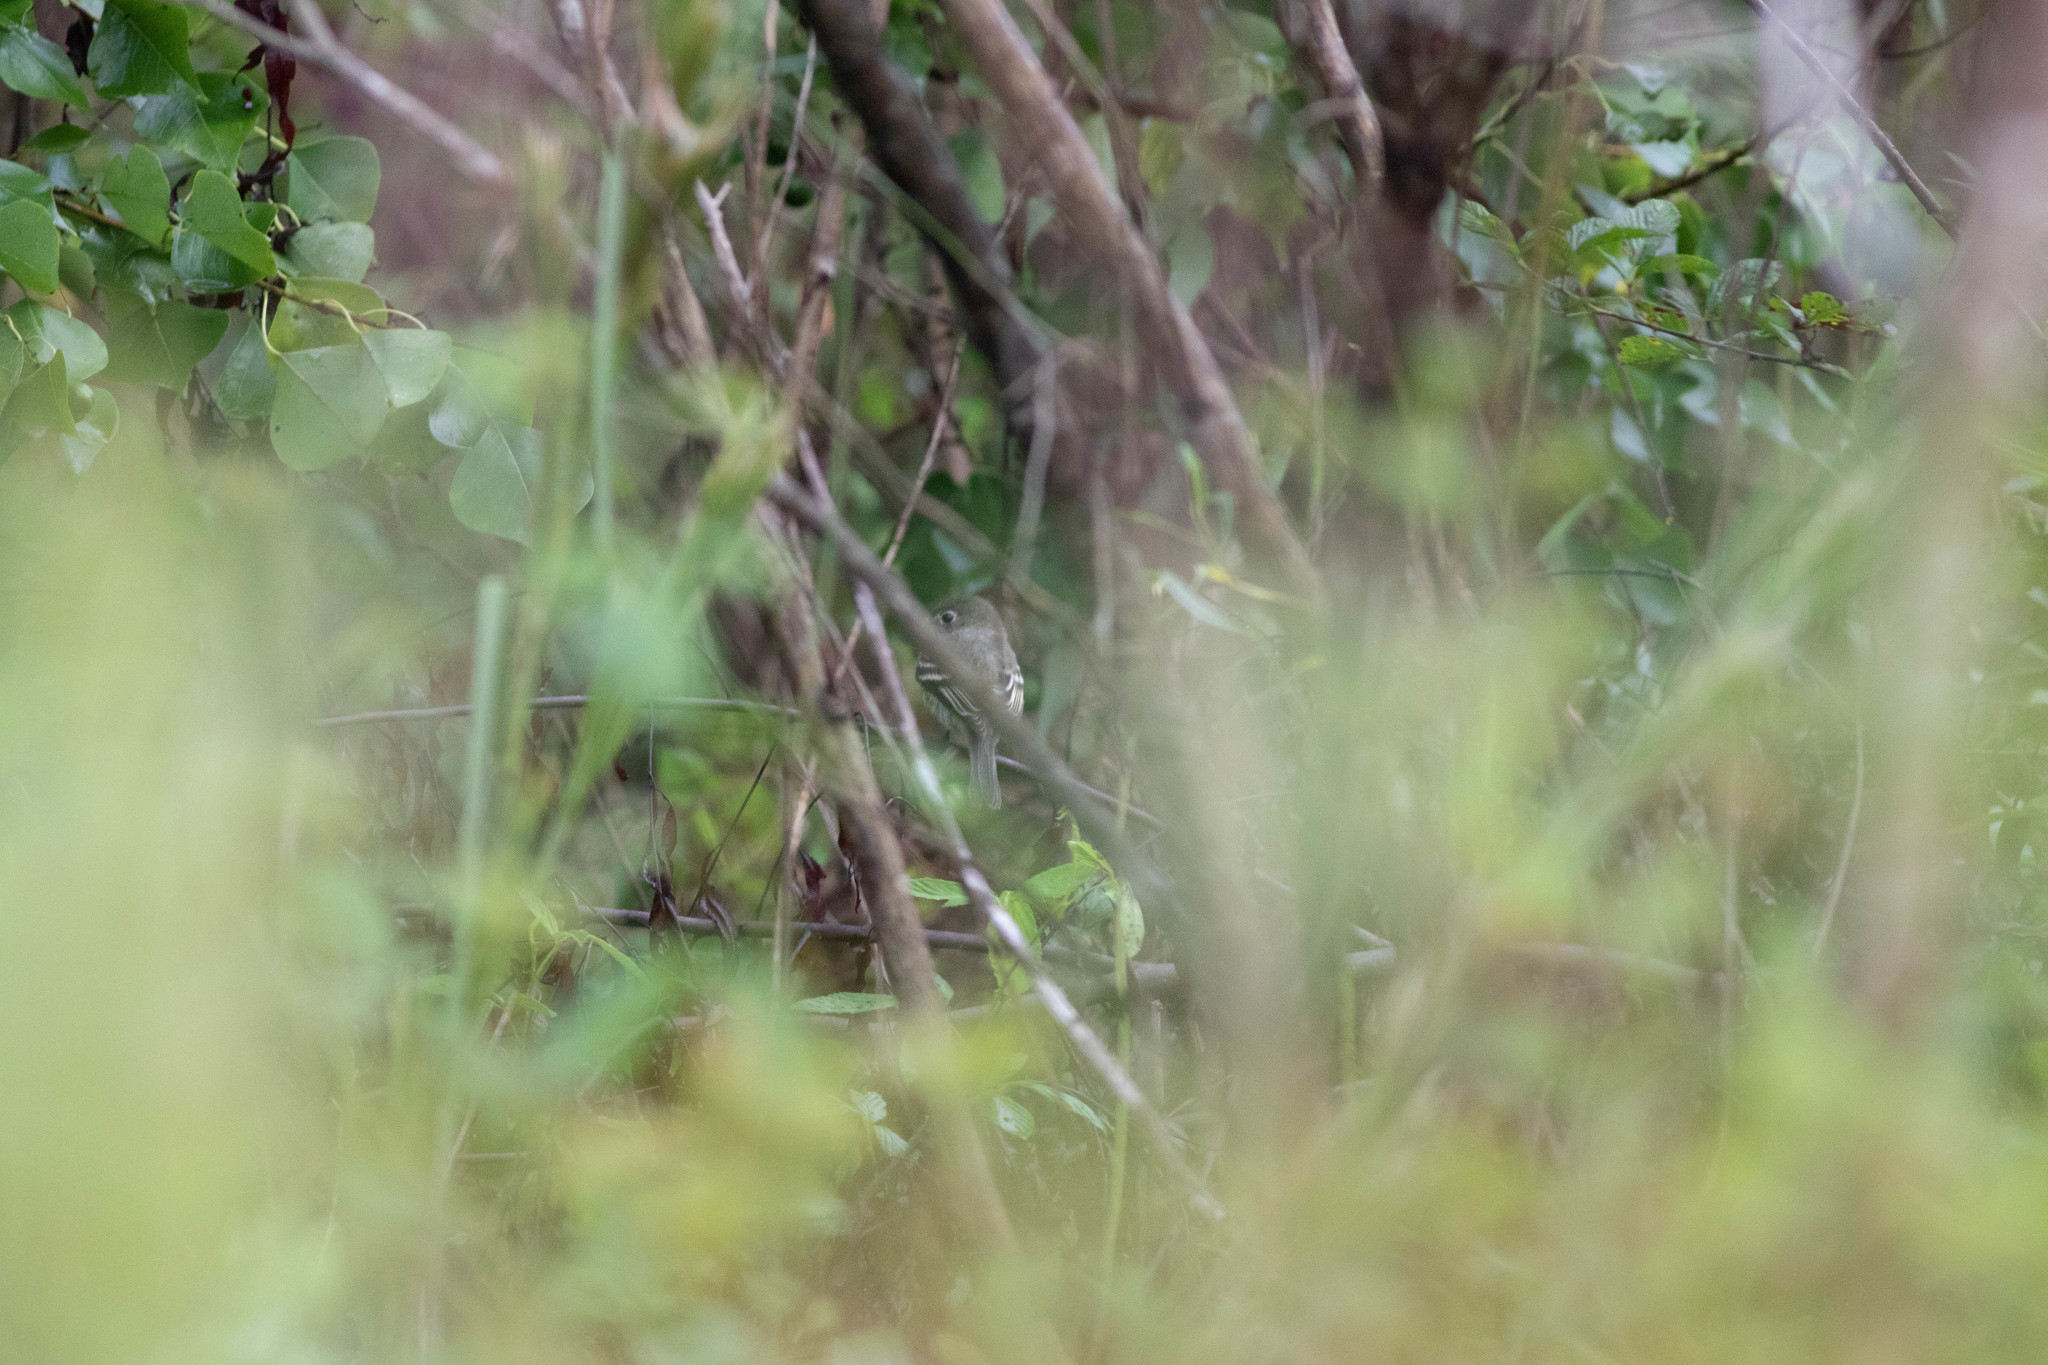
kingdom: Animalia
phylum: Chordata
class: Aves
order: Passeriformes
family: Tyrannidae
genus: Empidonax
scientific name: Empidonax minimus
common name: Least flycatcher
